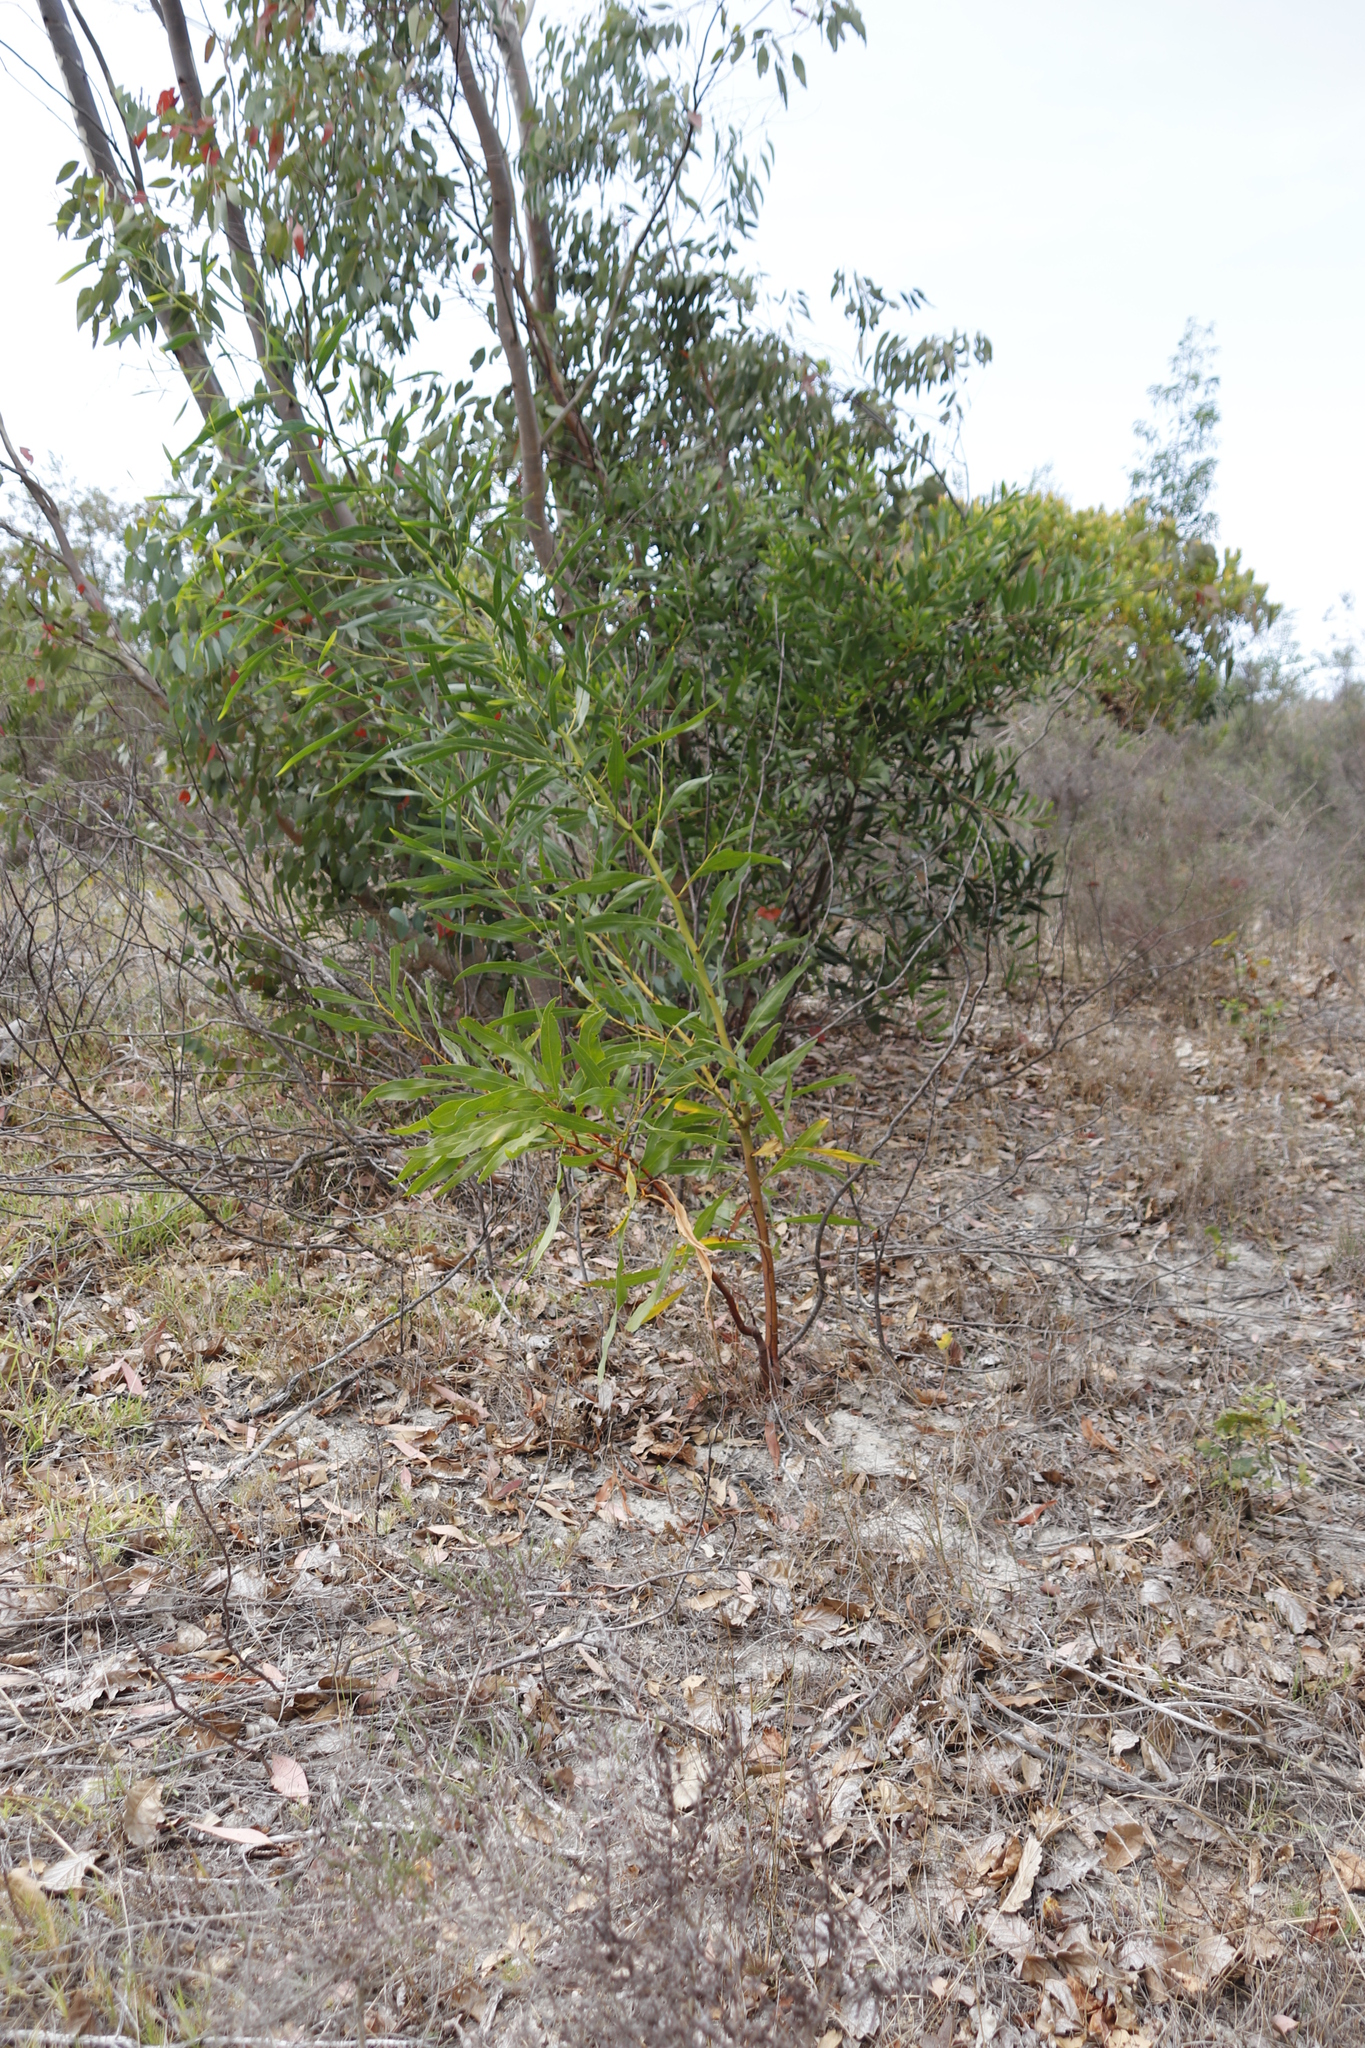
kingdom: Plantae
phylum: Tracheophyta
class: Magnoliopsida
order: Fabales
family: Fabaceae
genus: Acacia
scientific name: Acacia saligna
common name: Orange wattle
